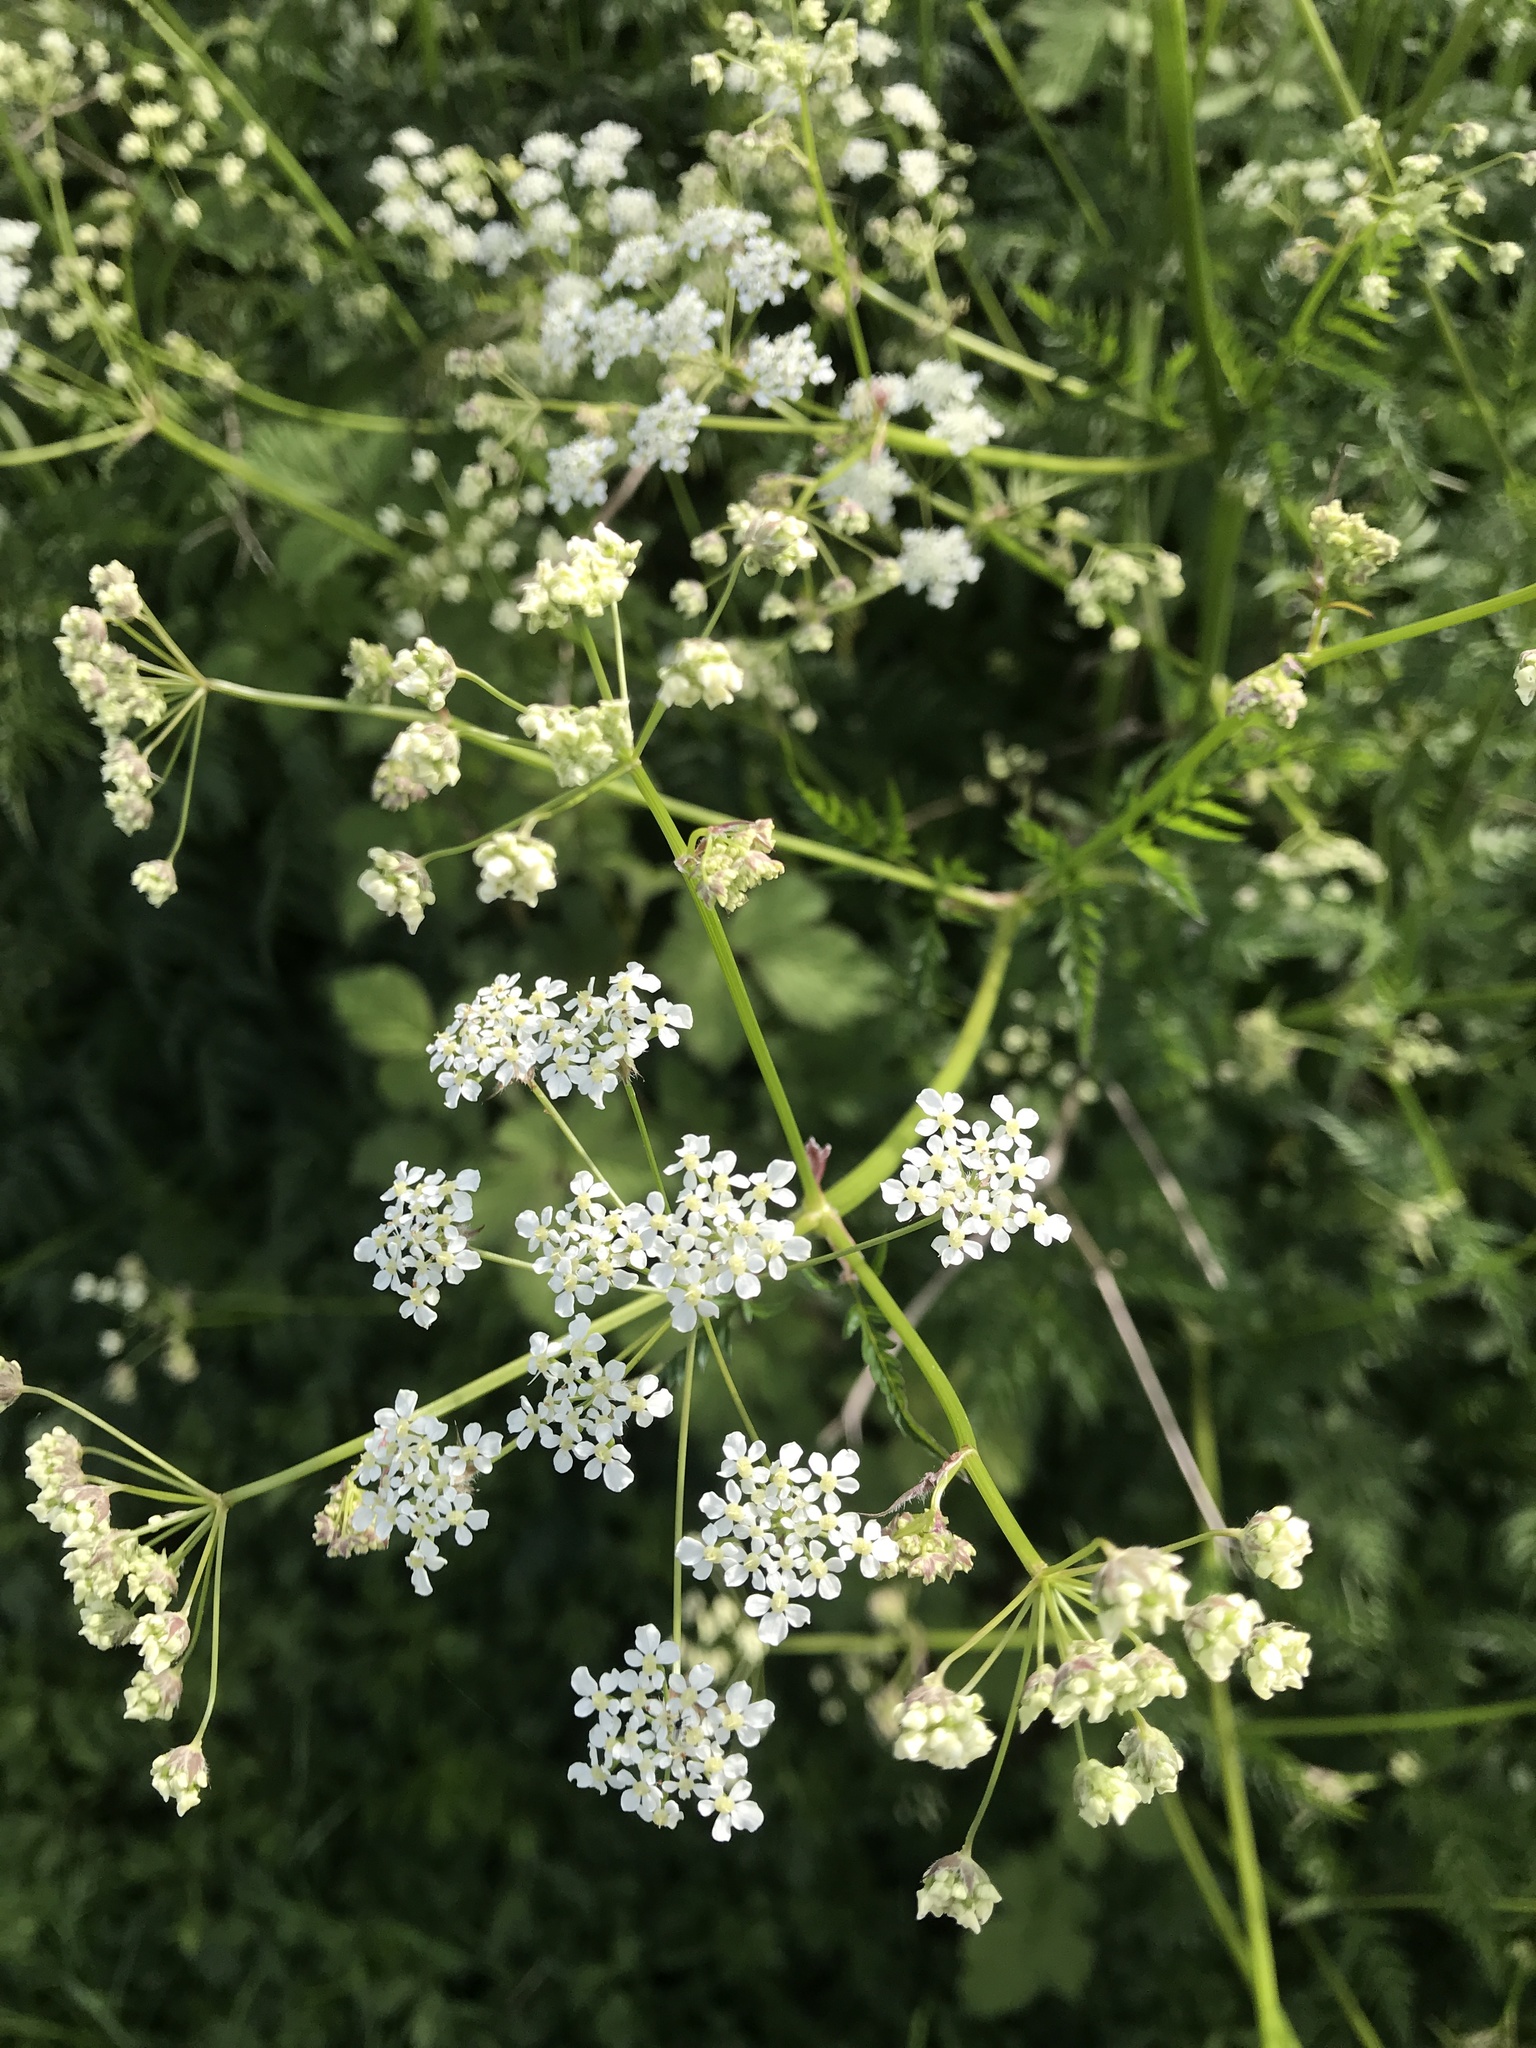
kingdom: Plantae
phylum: Tracheophyta
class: Magnoliopsida
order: Apiales
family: Apiaceae
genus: Anthriscus
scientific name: Anthriscus sylvestris
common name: Cow parsley
